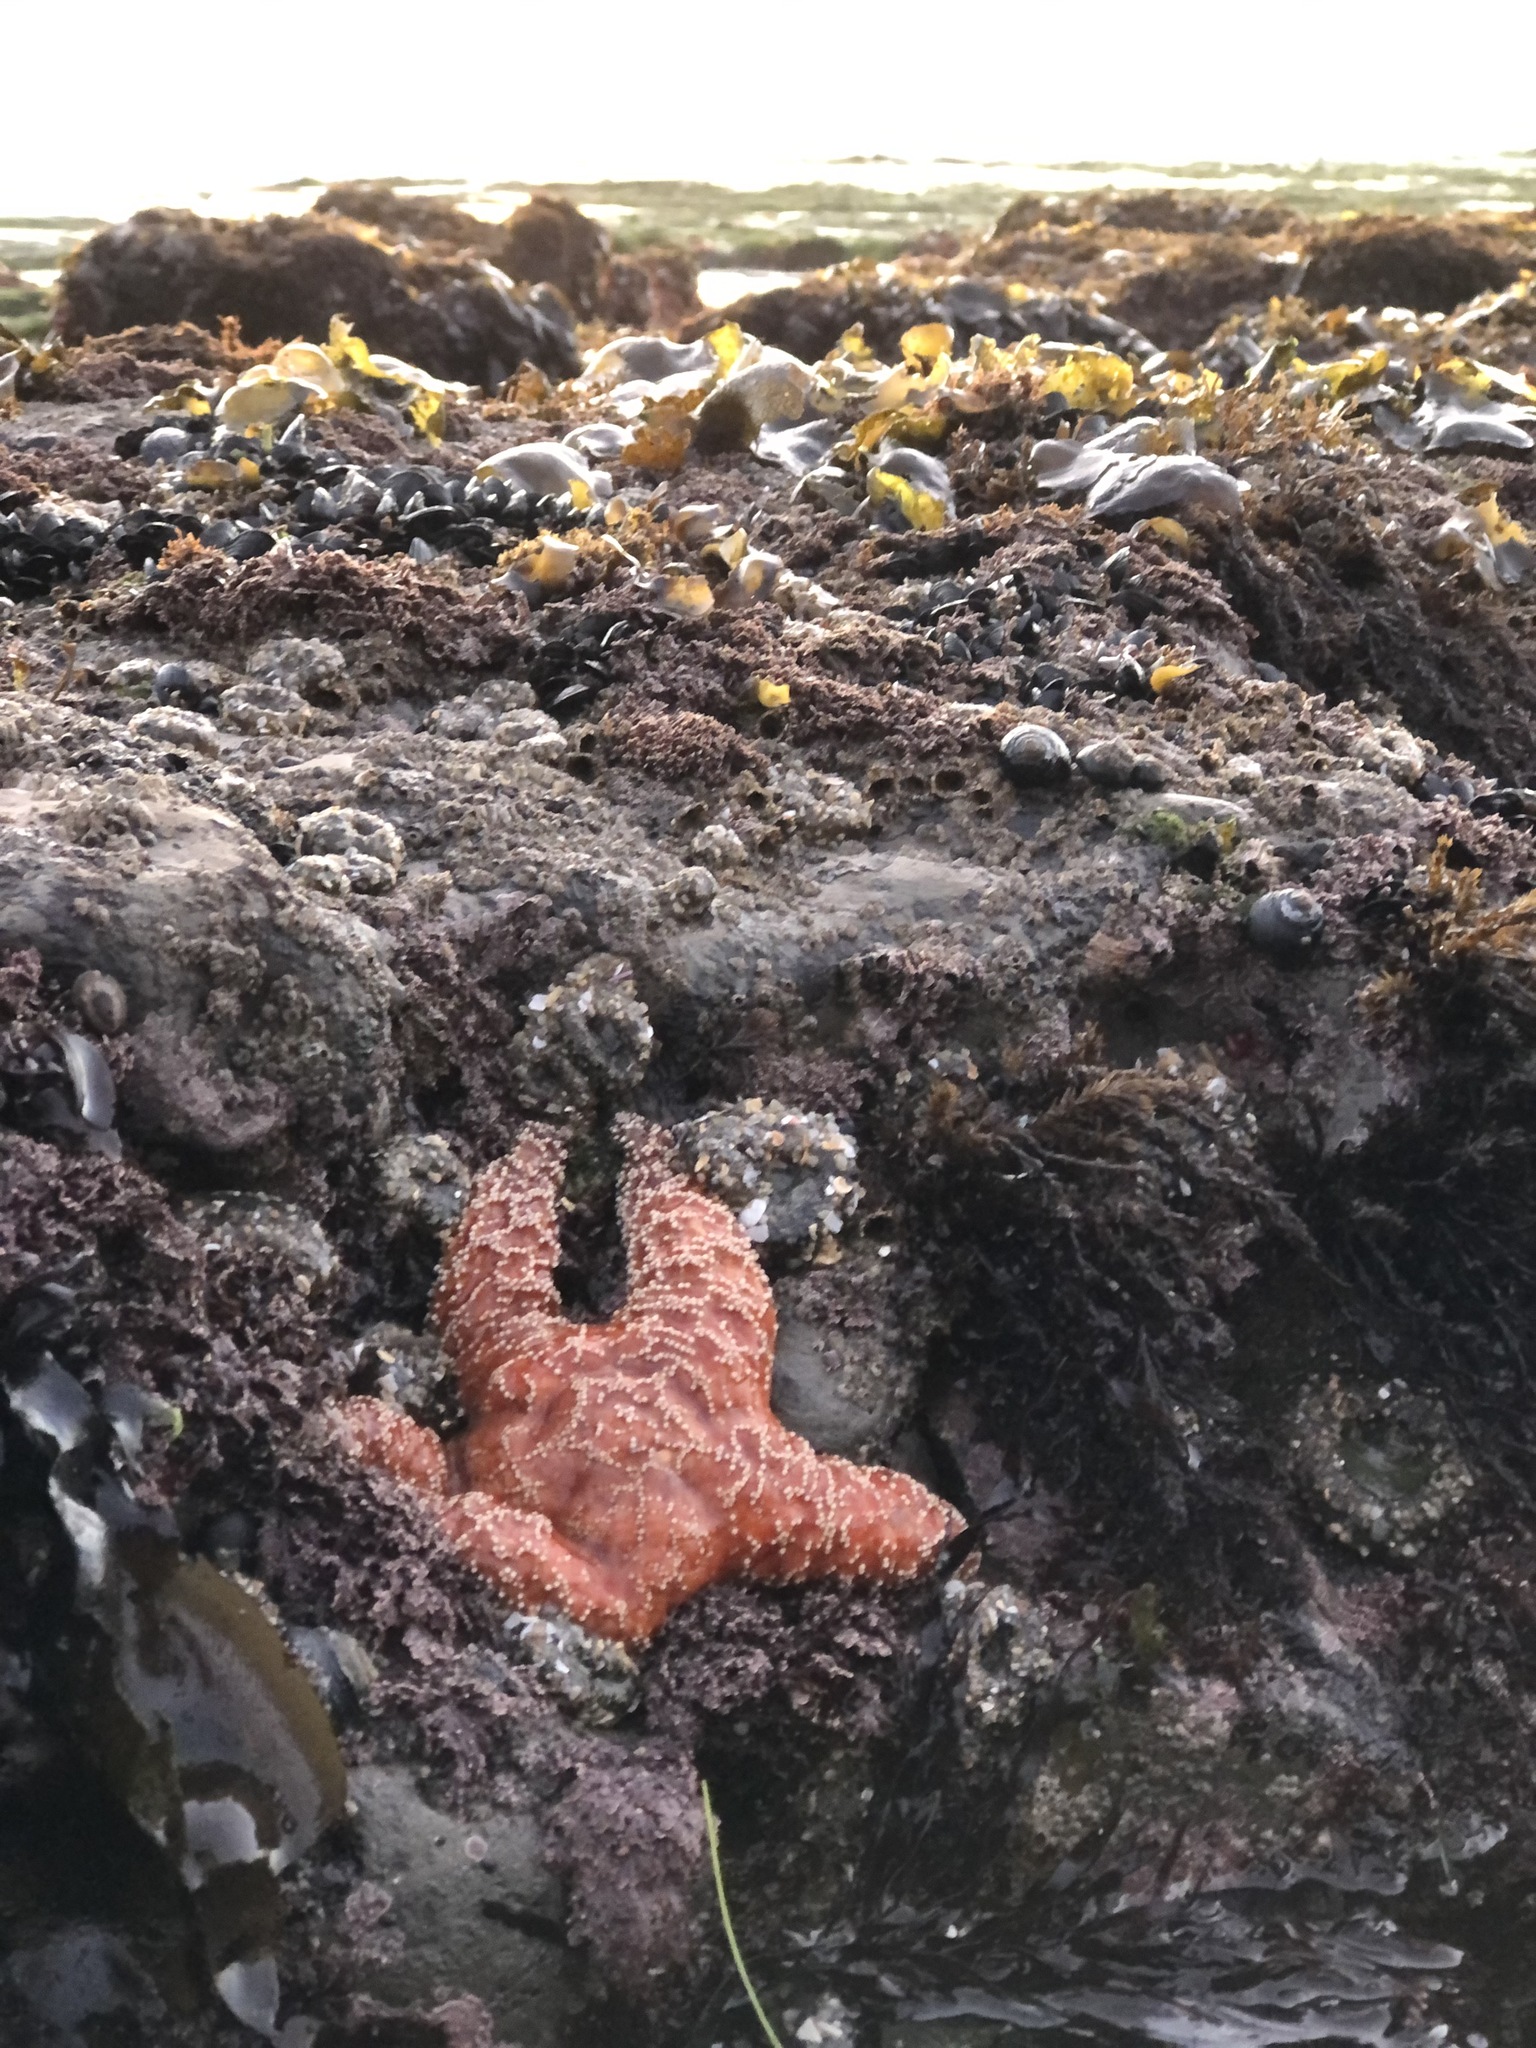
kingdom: Animalia
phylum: Echinodermata
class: Asteroidea
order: Forcipulatida
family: Asteriidae
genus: Pisaster
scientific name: Pisaster ochraceus
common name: Ochre stars
